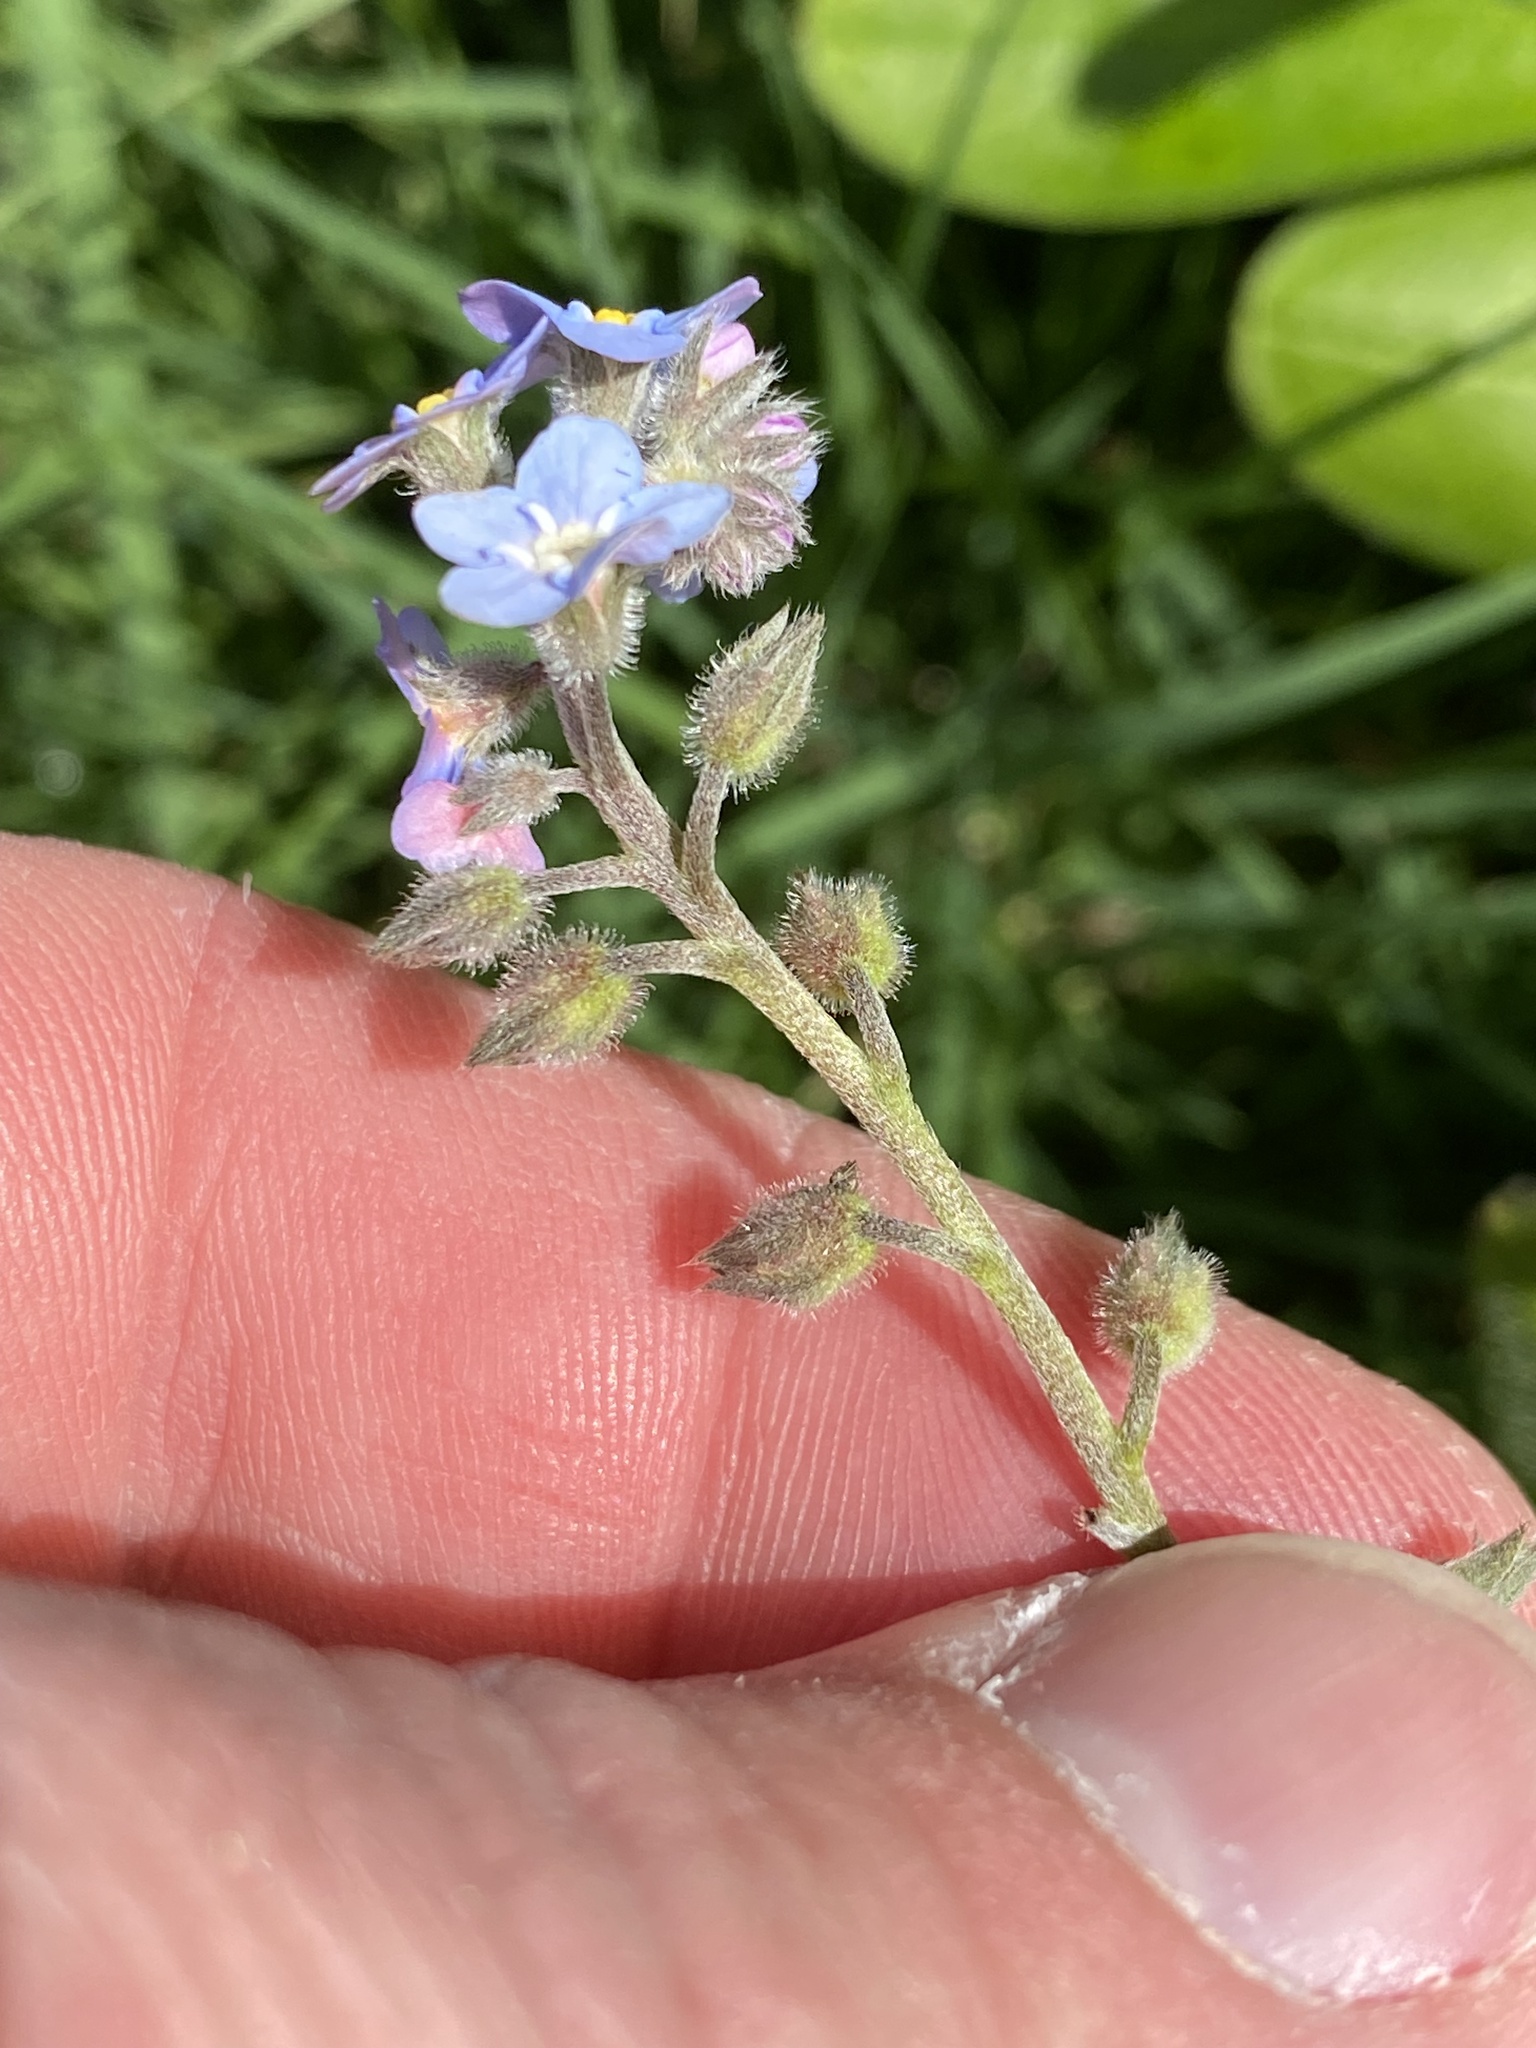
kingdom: Plantae
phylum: Tracheophyta
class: Magnoliopsida
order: Boraginales
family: Boraginaceae
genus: Myosotis
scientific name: Myosotis sylvatica
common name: Wood forget-me-not
